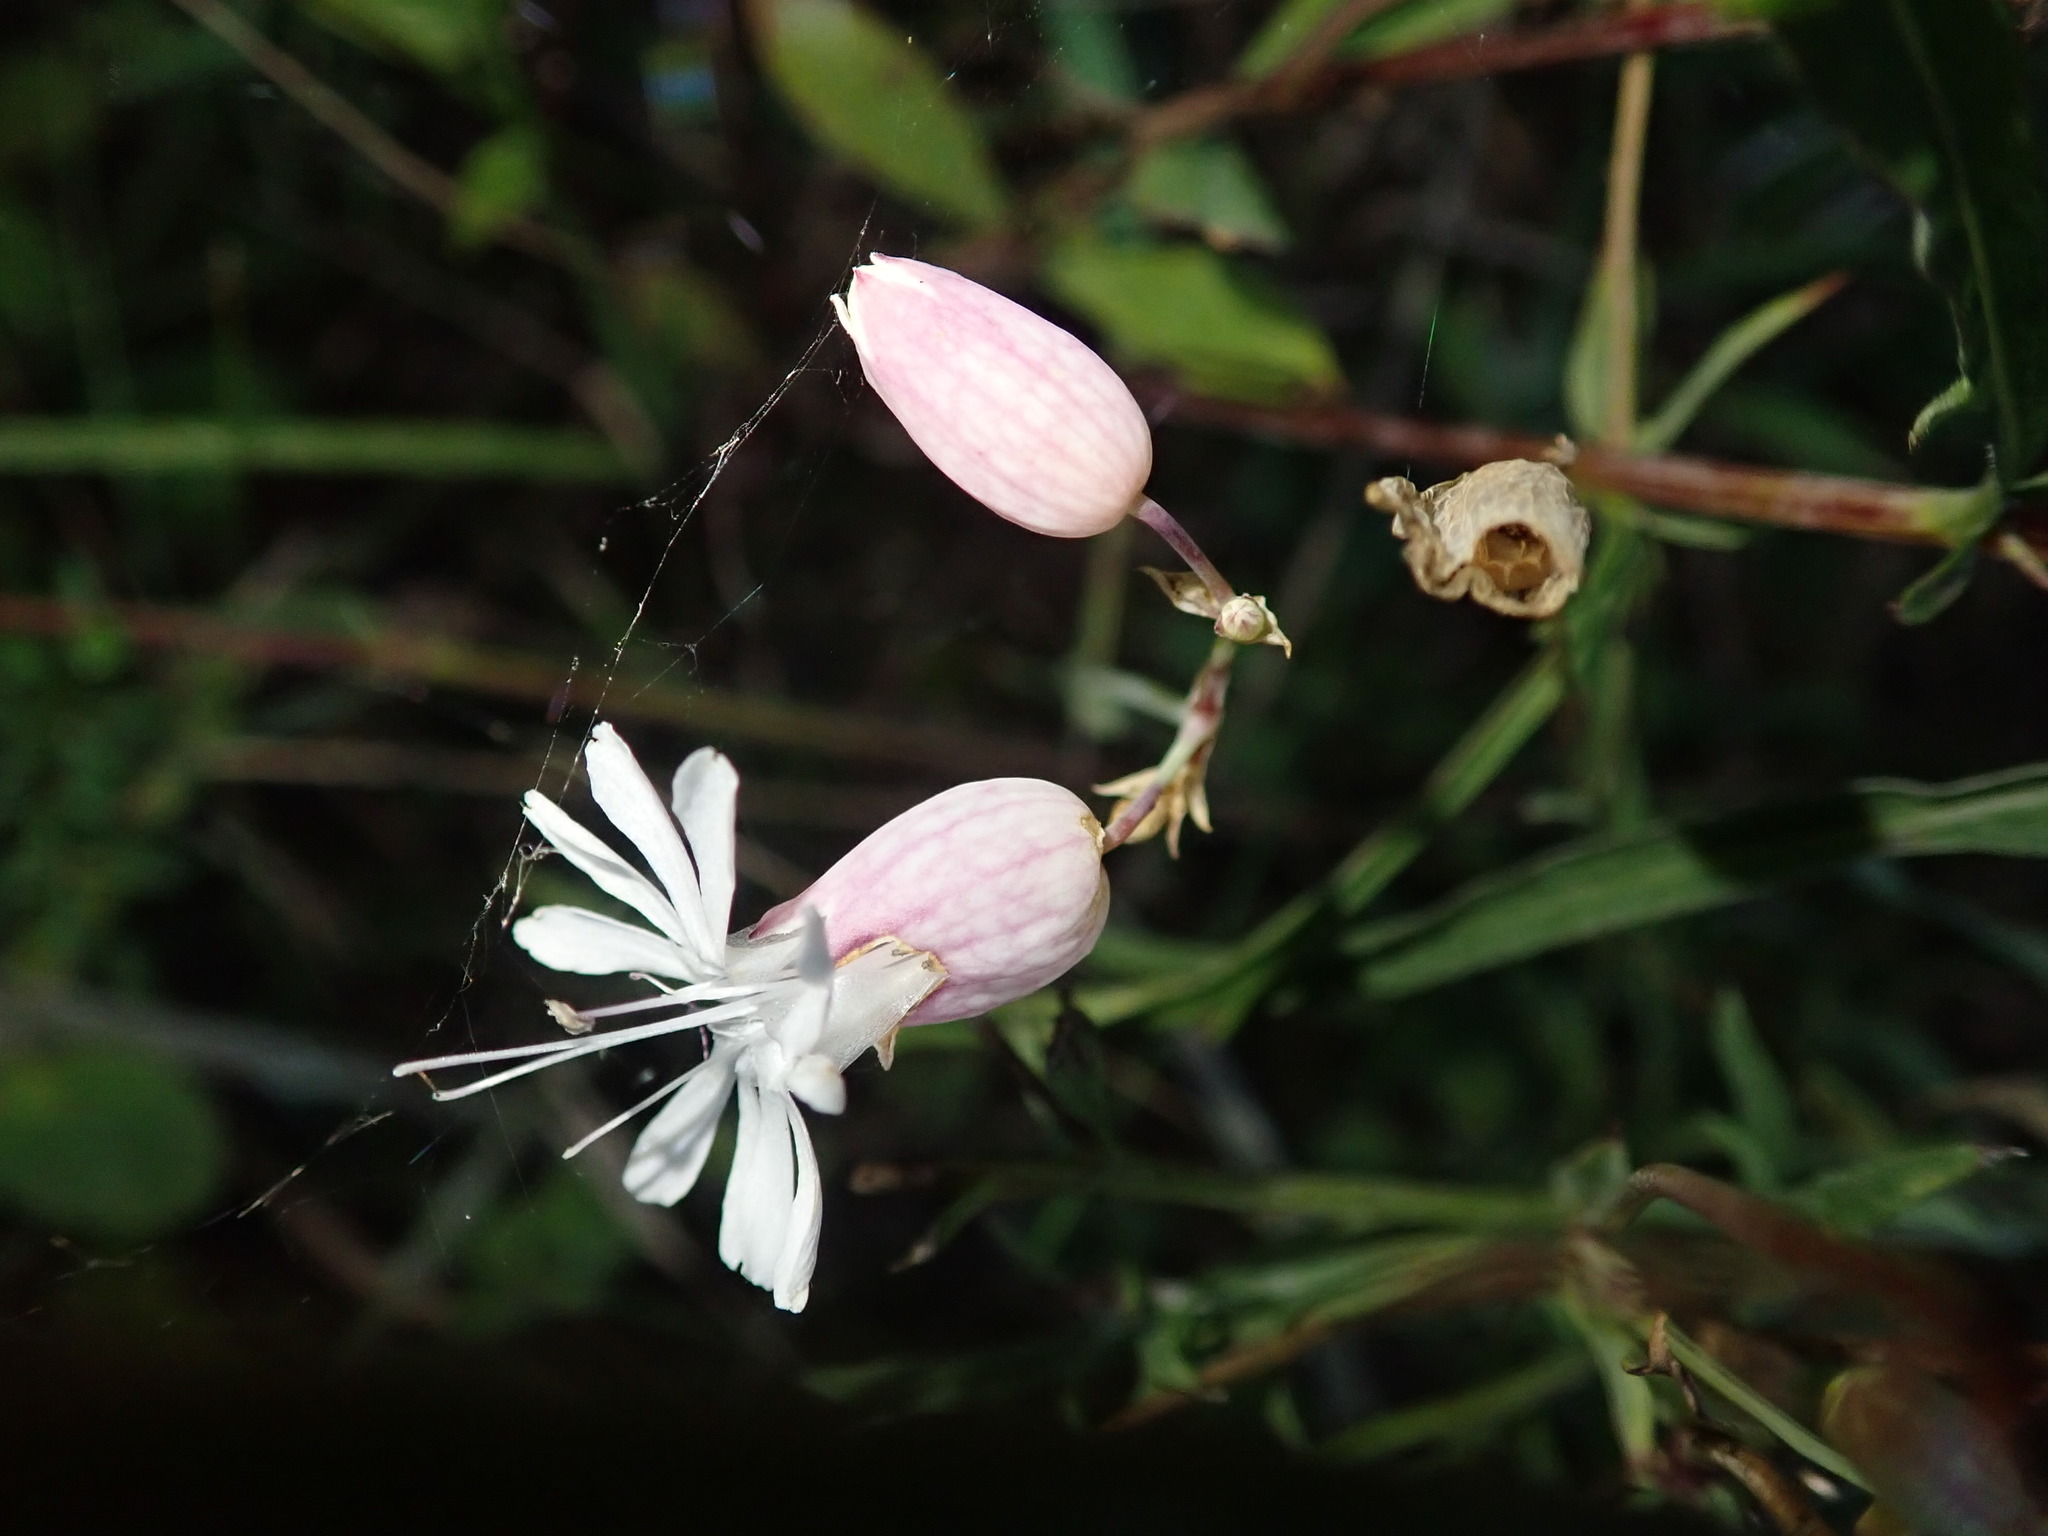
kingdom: Plantae
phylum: Tracheophyta
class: Magnoliopsida
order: Caryophyllales
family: Caryophyllaceae
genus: Silene
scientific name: Silene vulgaris
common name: Bladder campion
